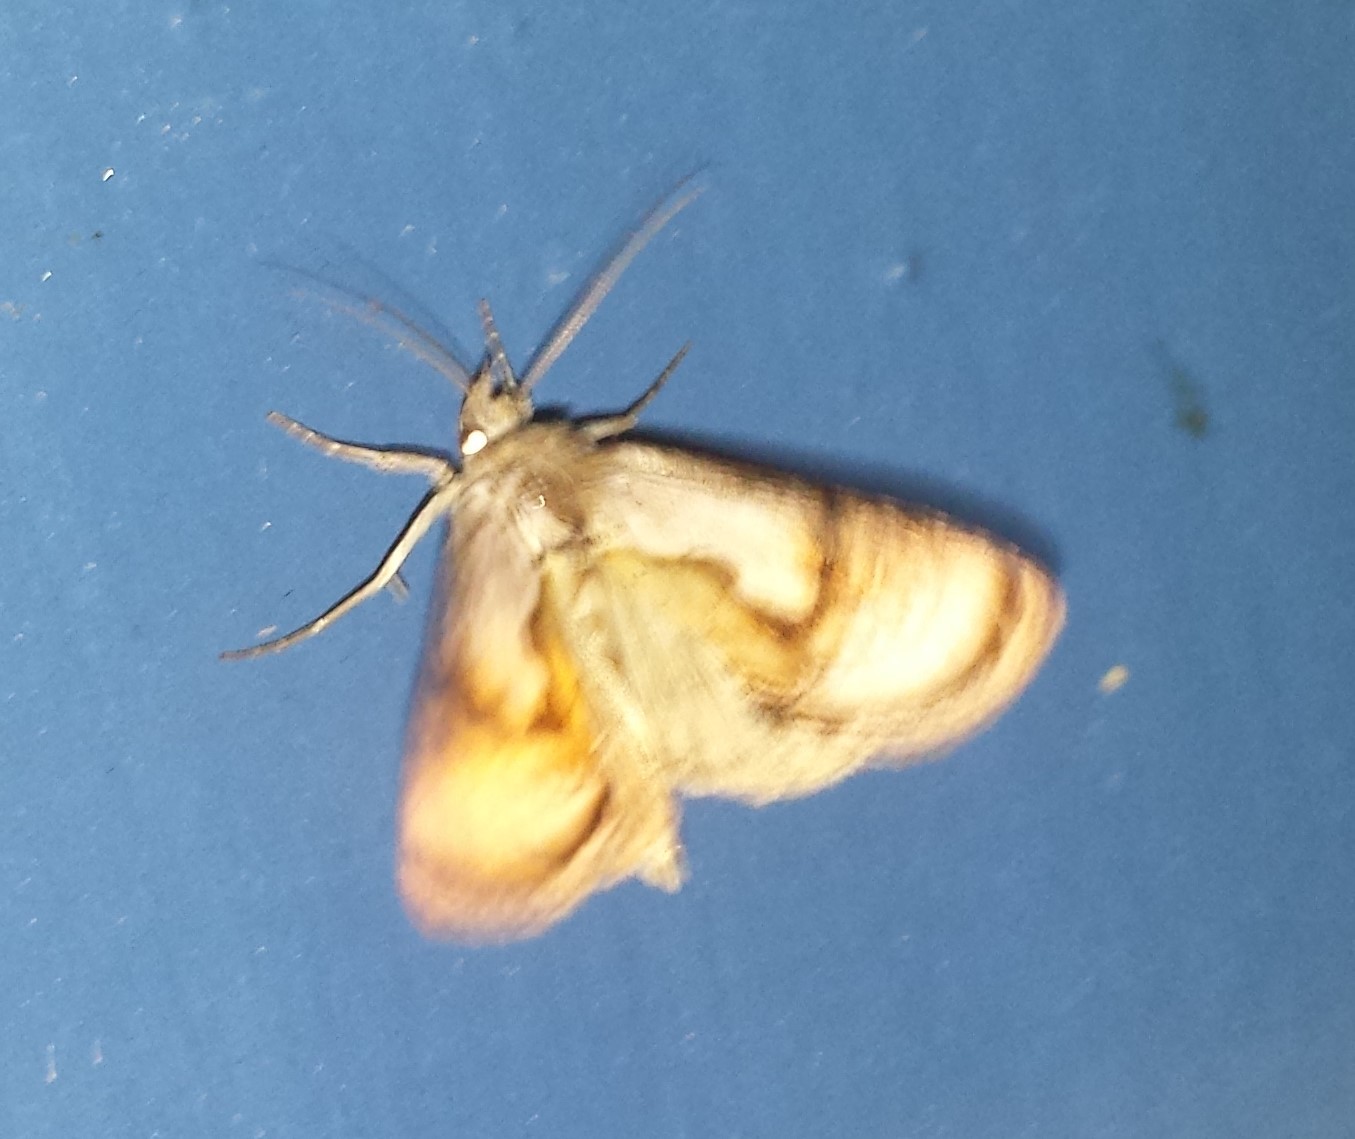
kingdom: Animalia
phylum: Arthropoda
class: Insecta
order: Lepidoptera
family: Noctuidae
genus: Chrysanympha
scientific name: Chrysanympha formosa
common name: Formosa looper moth
